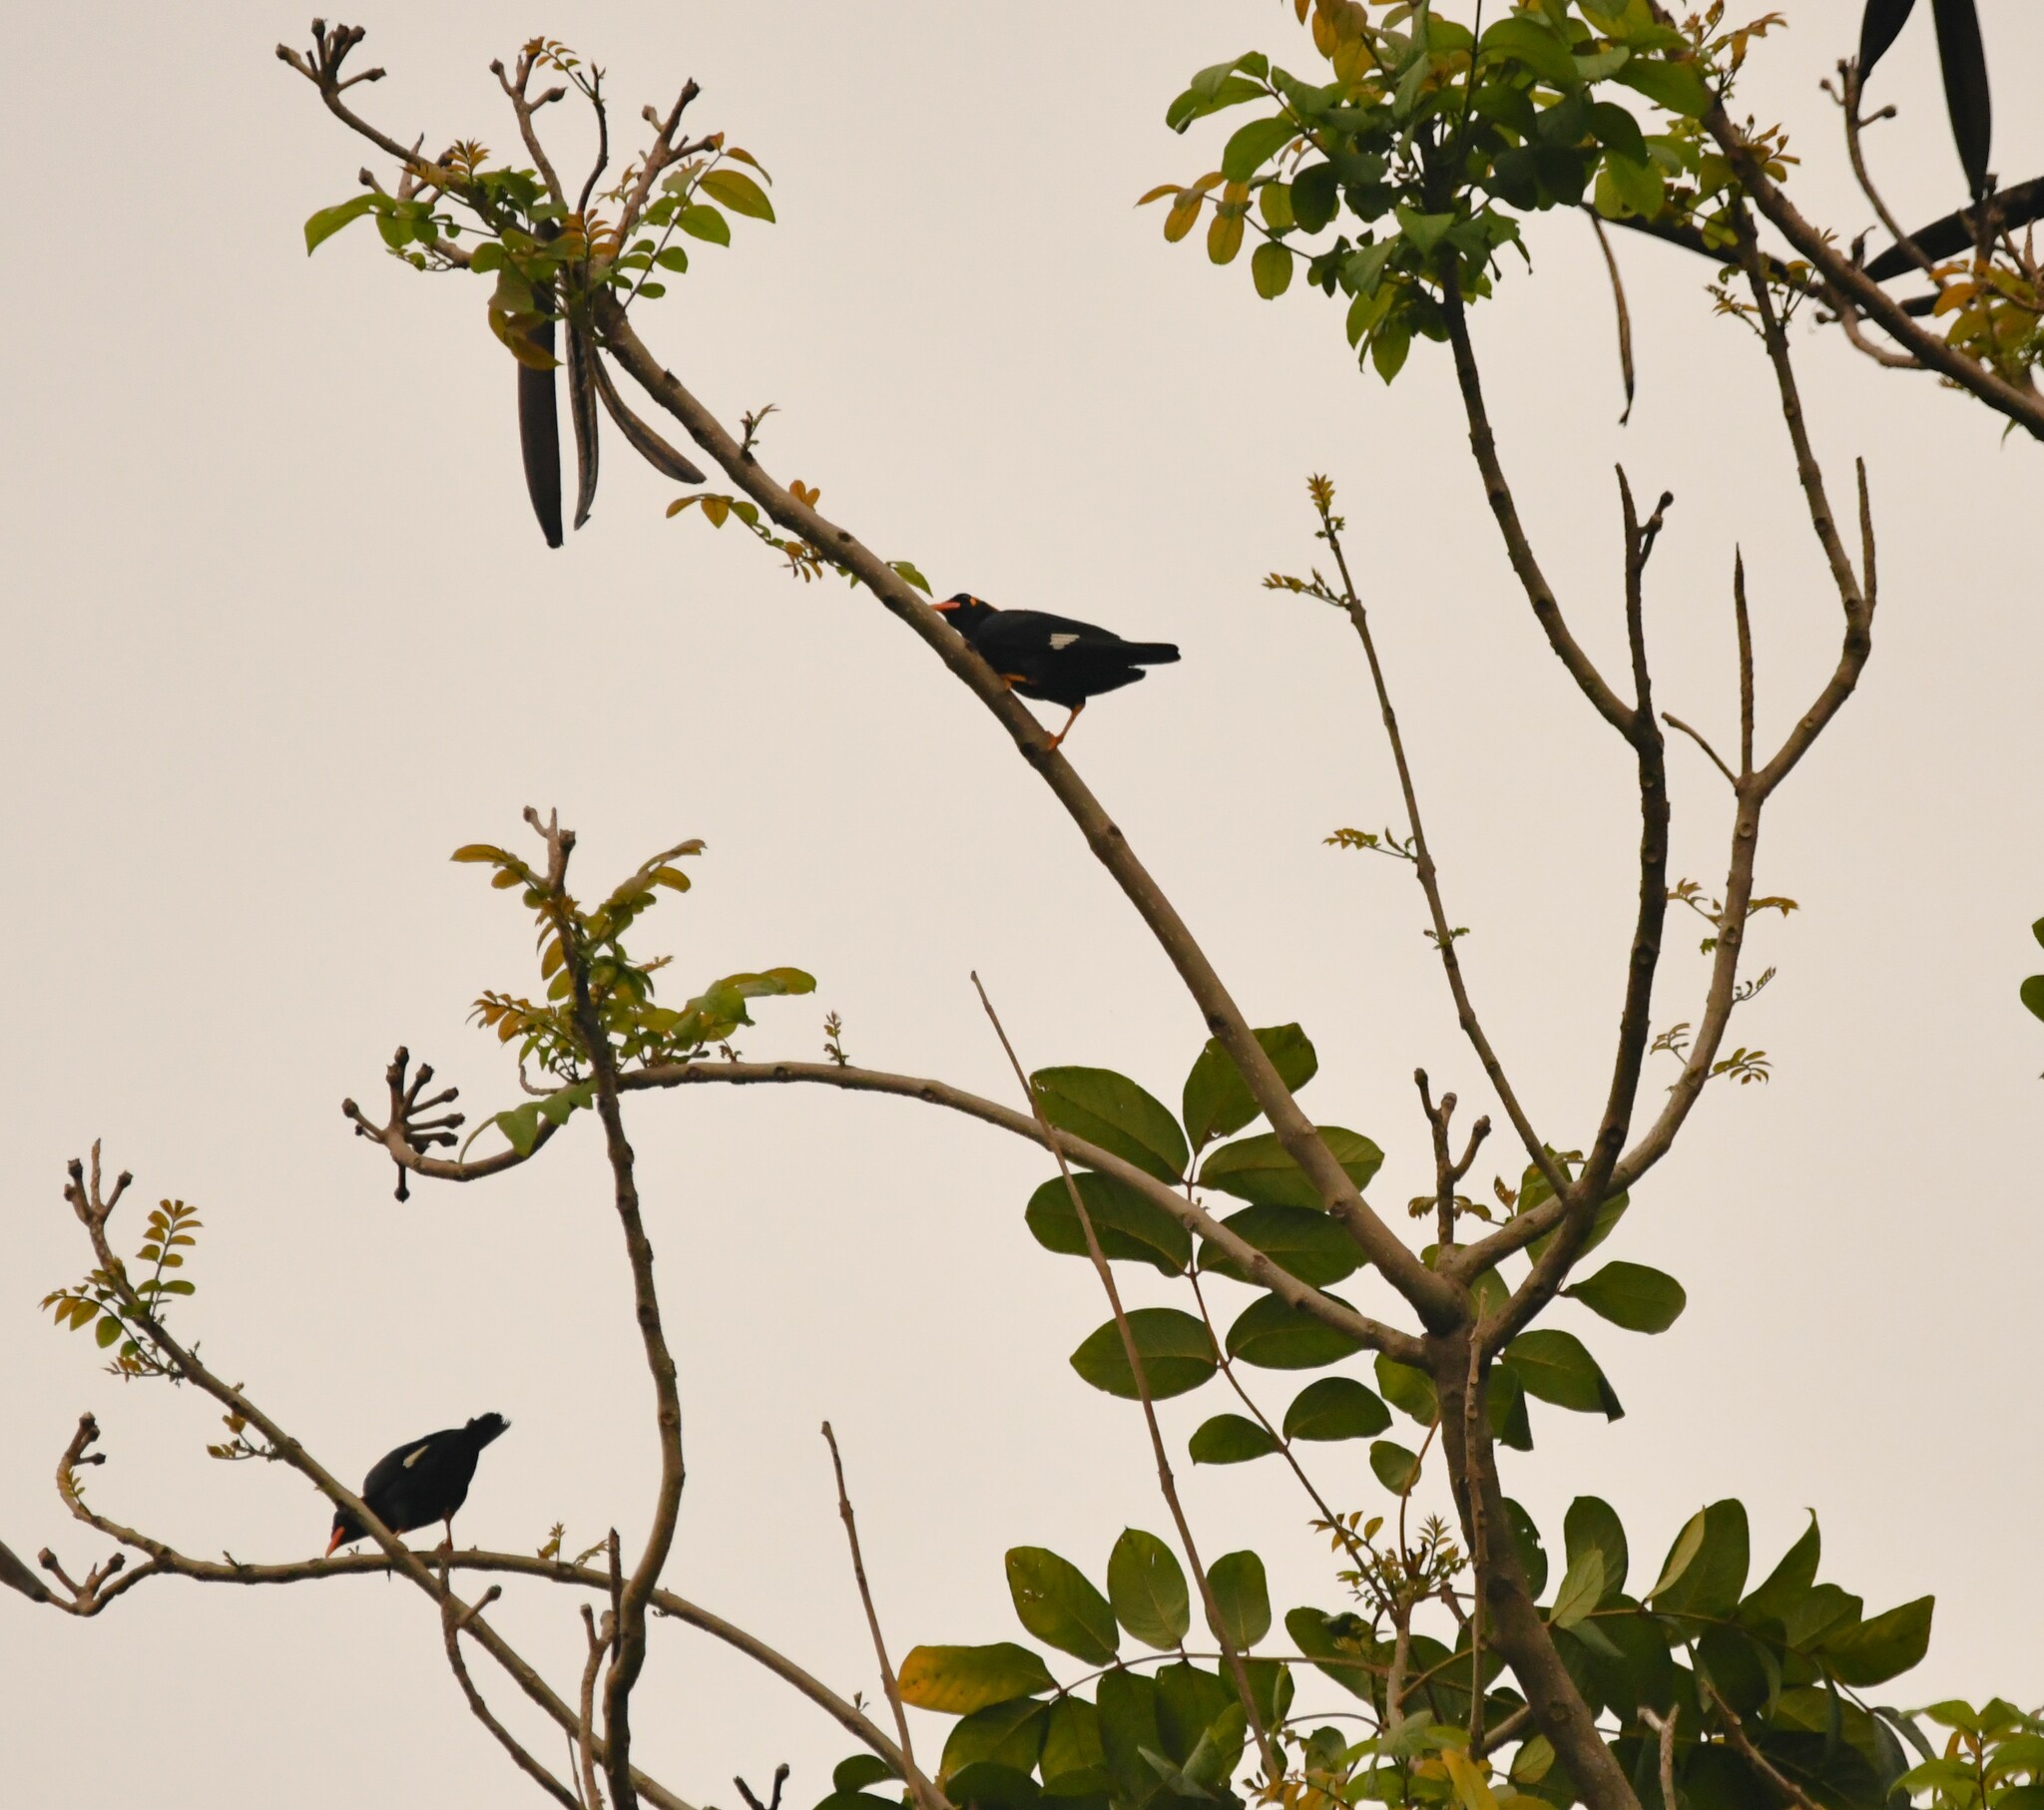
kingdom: Animalia
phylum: Chordata
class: Aves
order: Passeriformes
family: Sturnidae
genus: Gracula
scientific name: Gracula indica
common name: Southern hill myna
